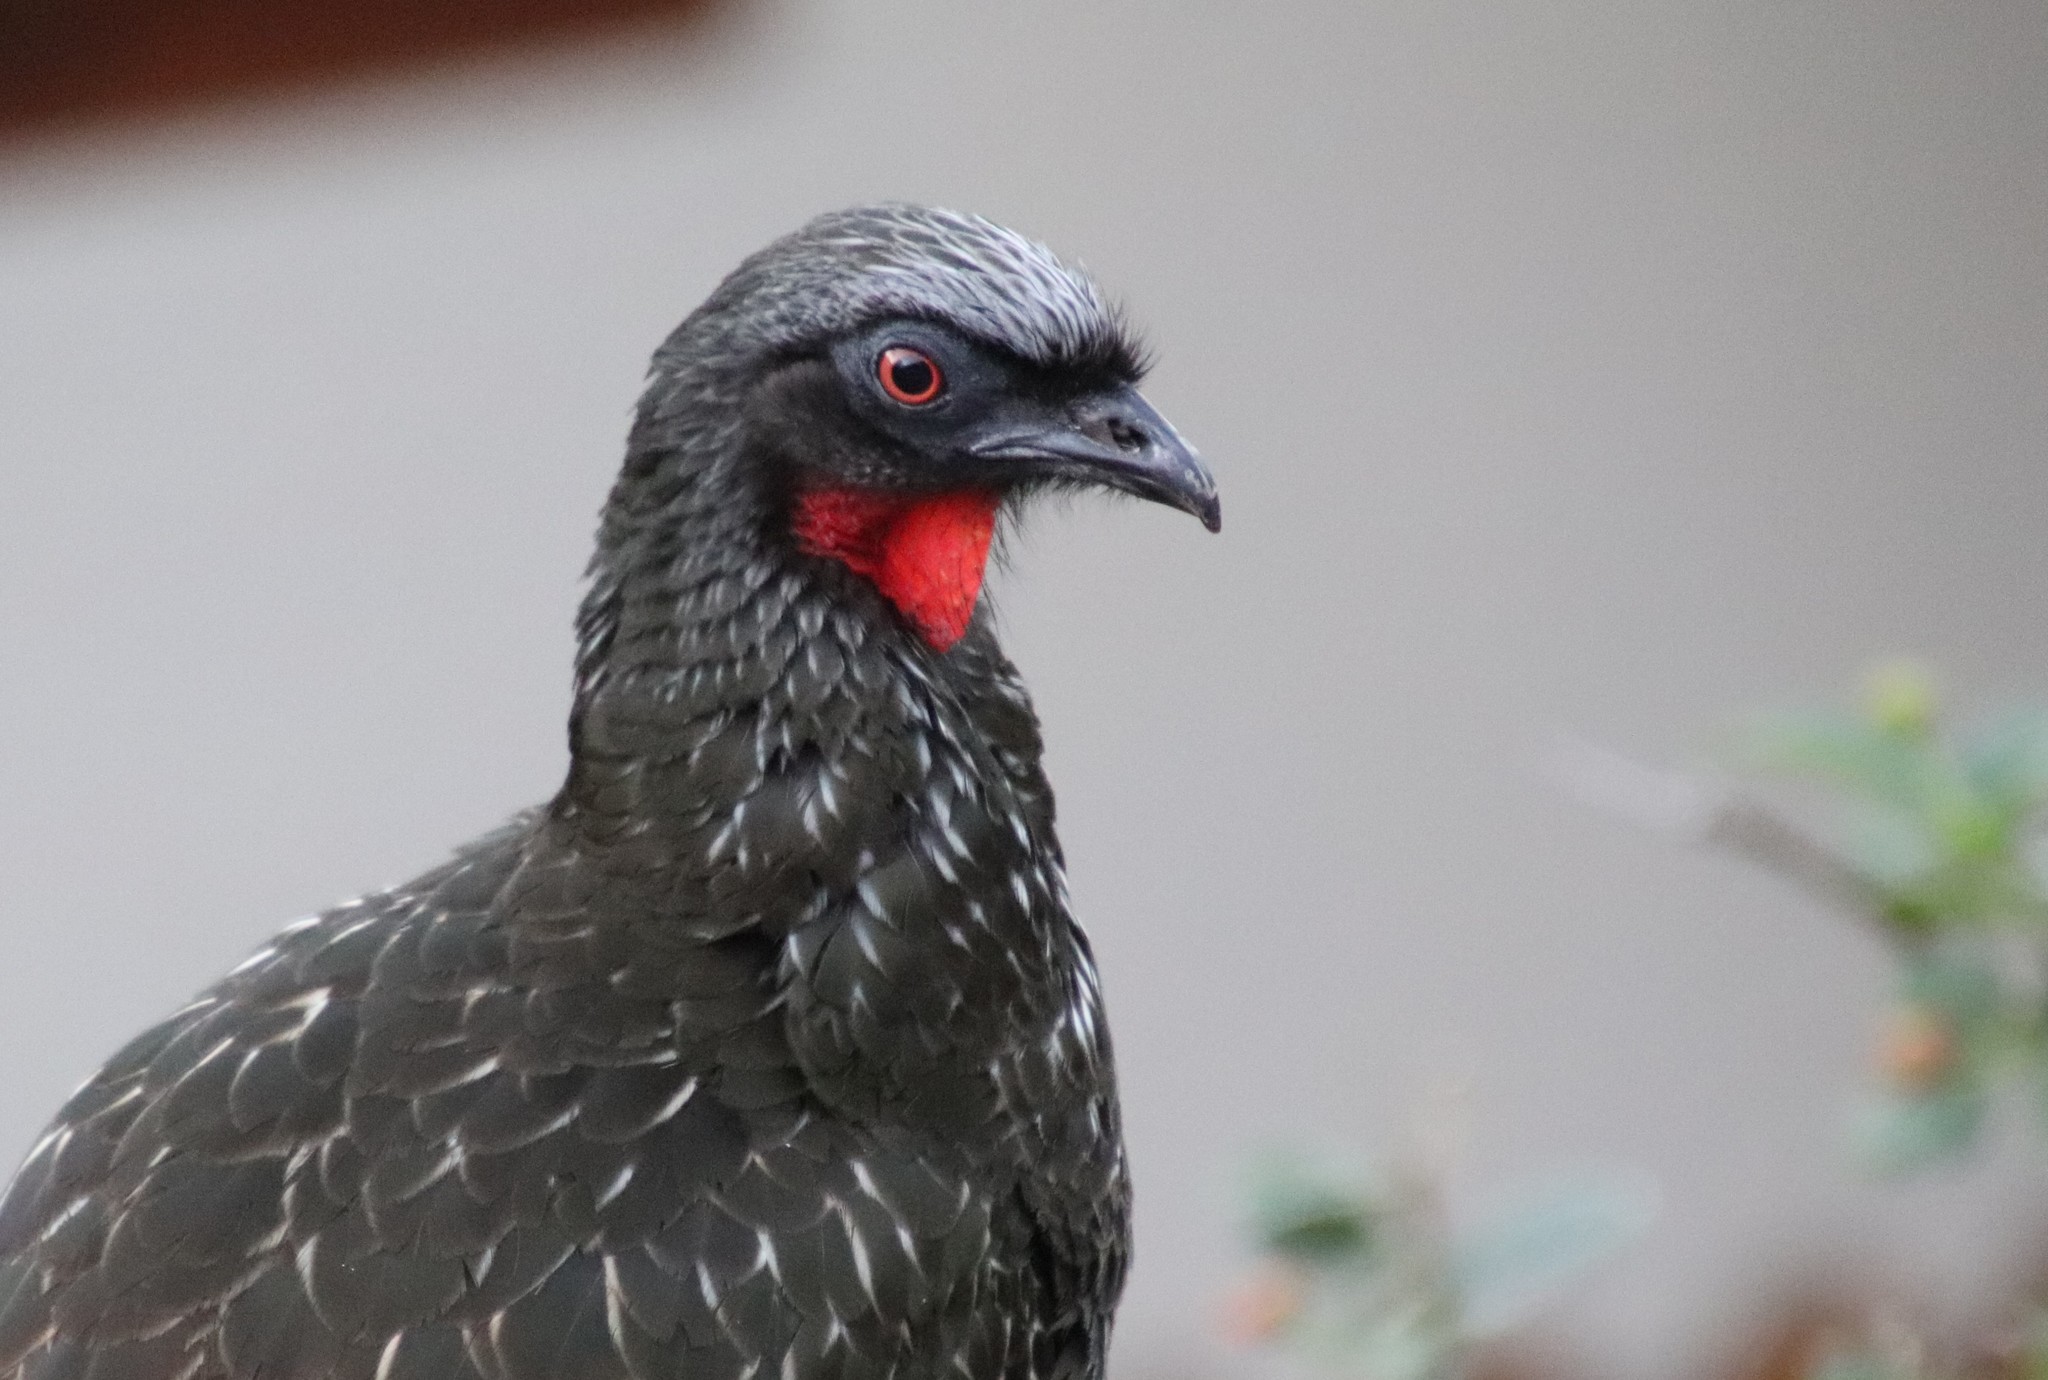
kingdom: Animalia
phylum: Chordata
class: Aves
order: Galliformes
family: Cracidae
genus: Penelope
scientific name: Penelope obscura
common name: Dusky-legged guan
